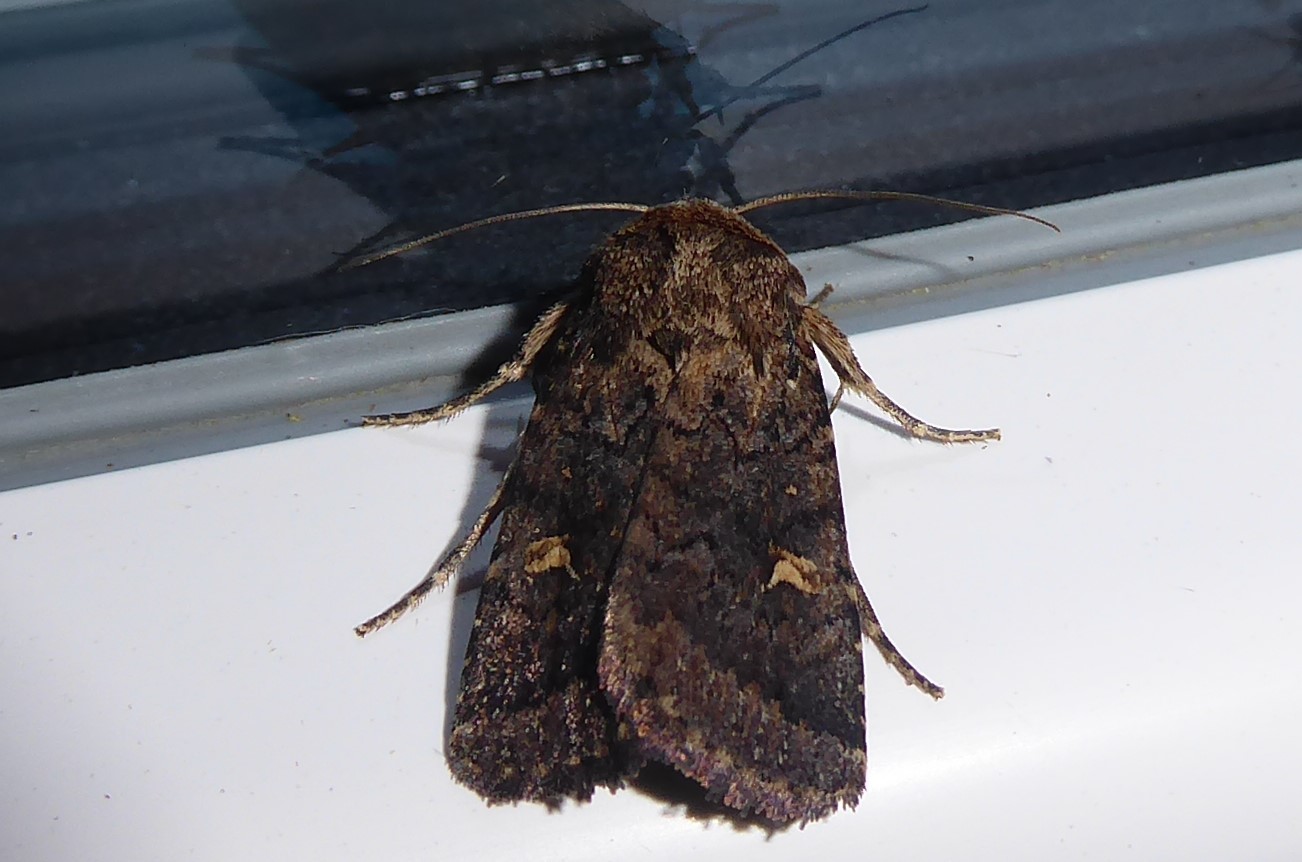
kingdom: Animalia
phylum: Arthropoda
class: Insecta
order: Lepidoptera
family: Noctuidae
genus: Proteuxoa
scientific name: Proteuxoa tetronycha
